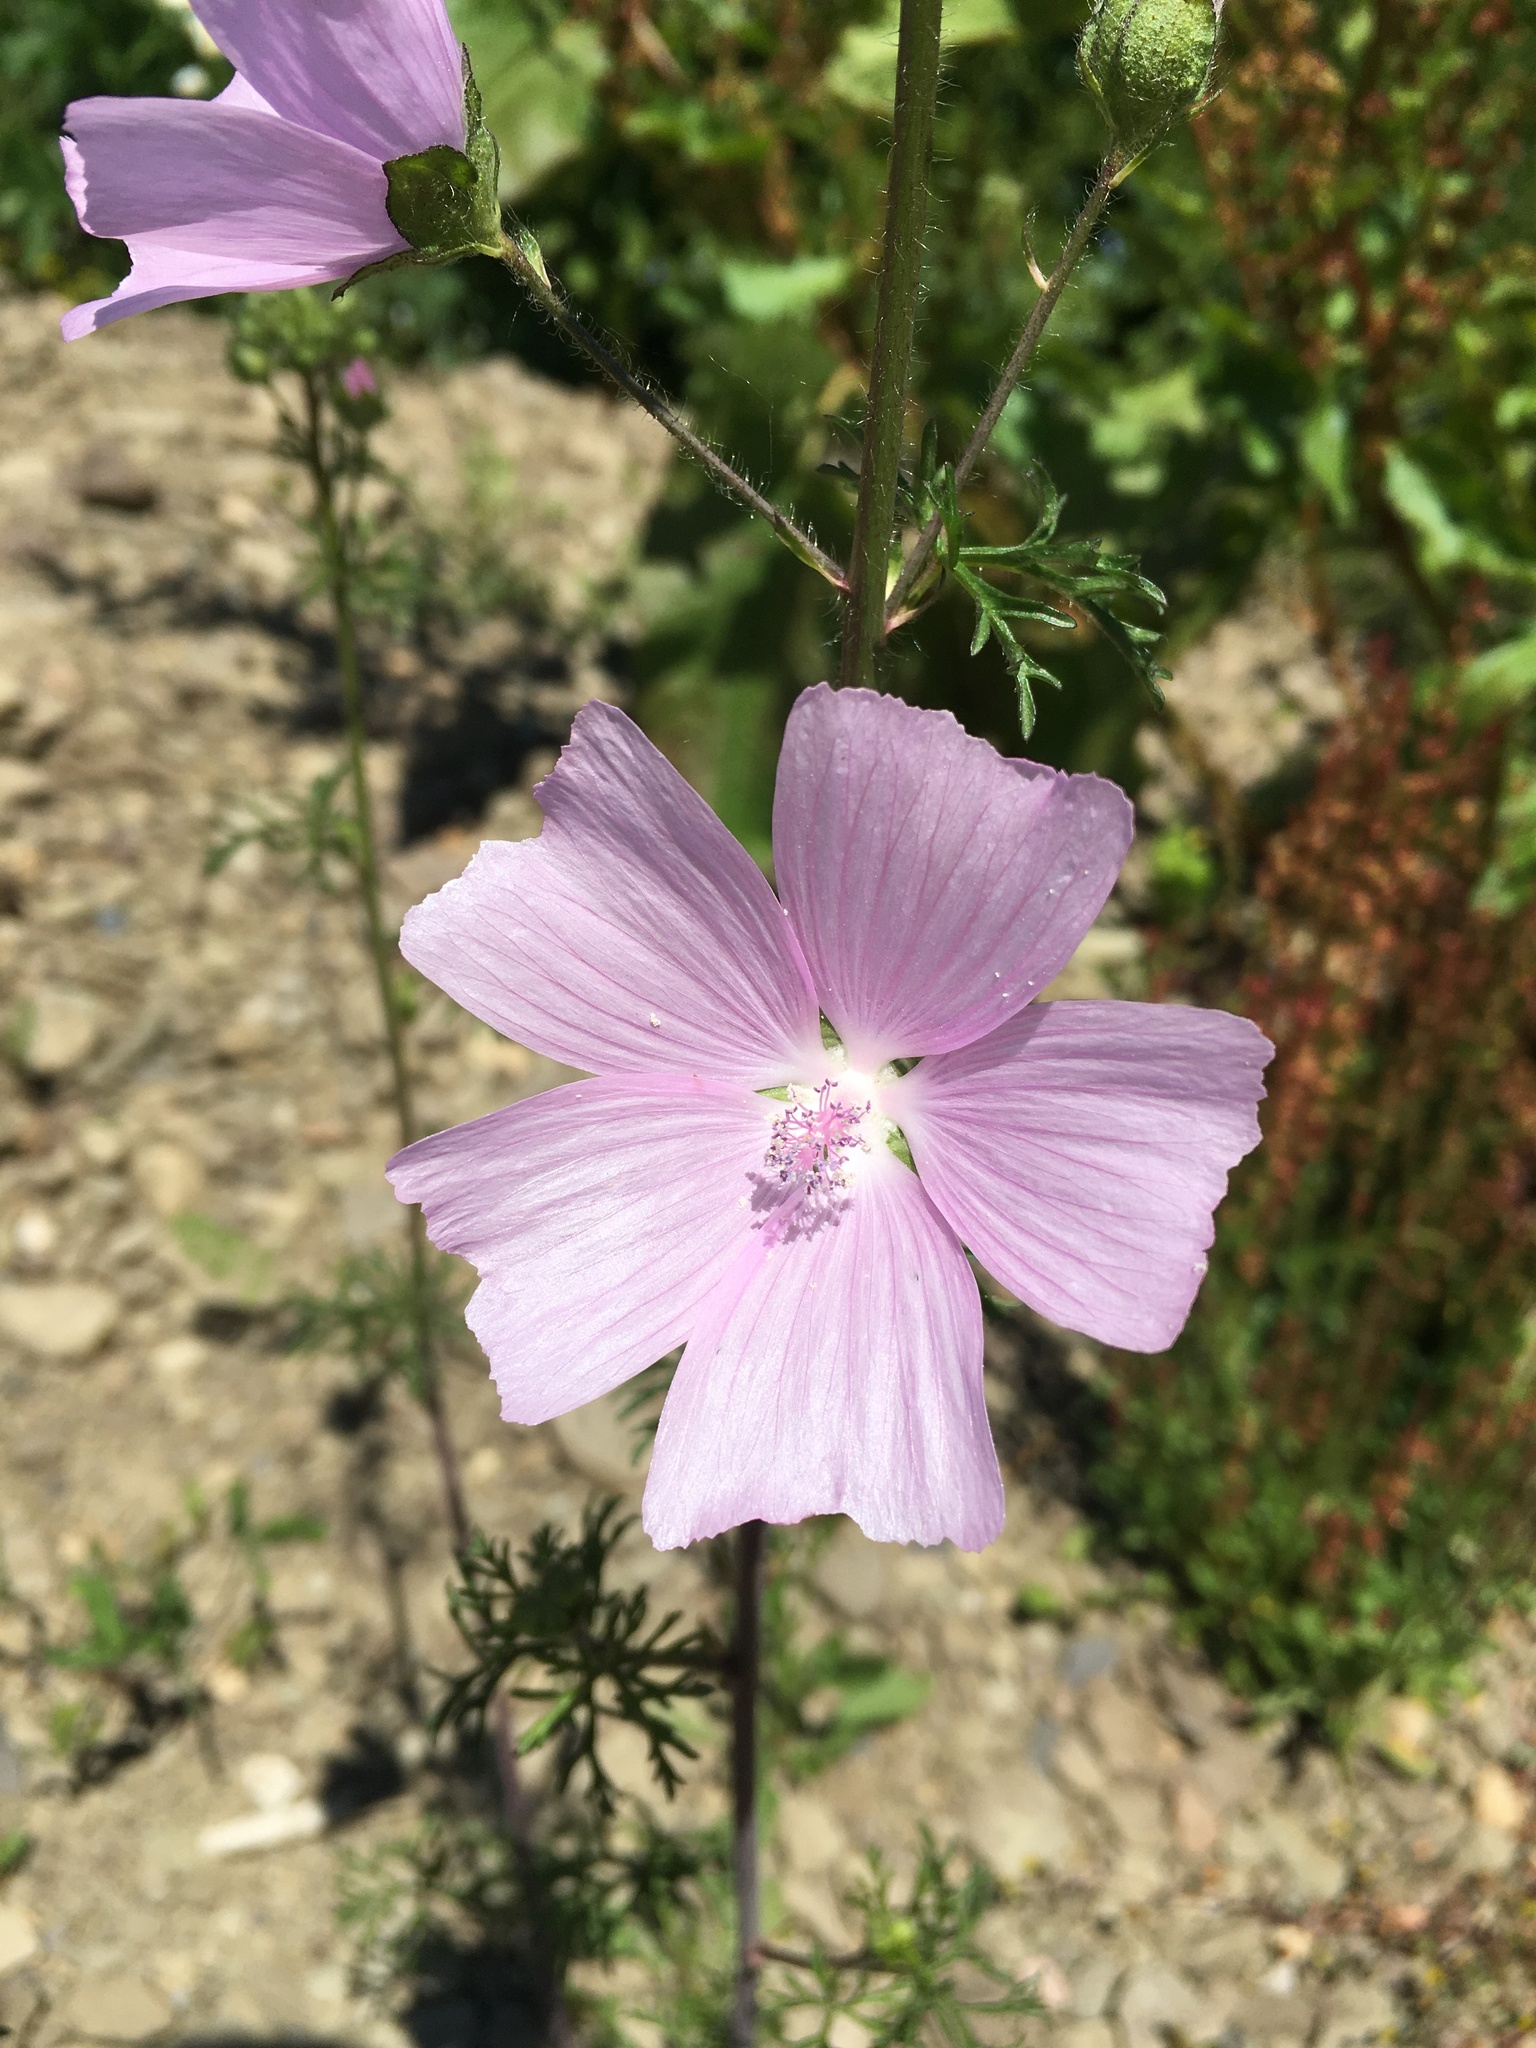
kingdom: Plantae
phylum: Tracheophyta
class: Magnoliopsida
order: Malvales
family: Malvaceae
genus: Malva
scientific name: Malva moschata
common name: Musk mallow
